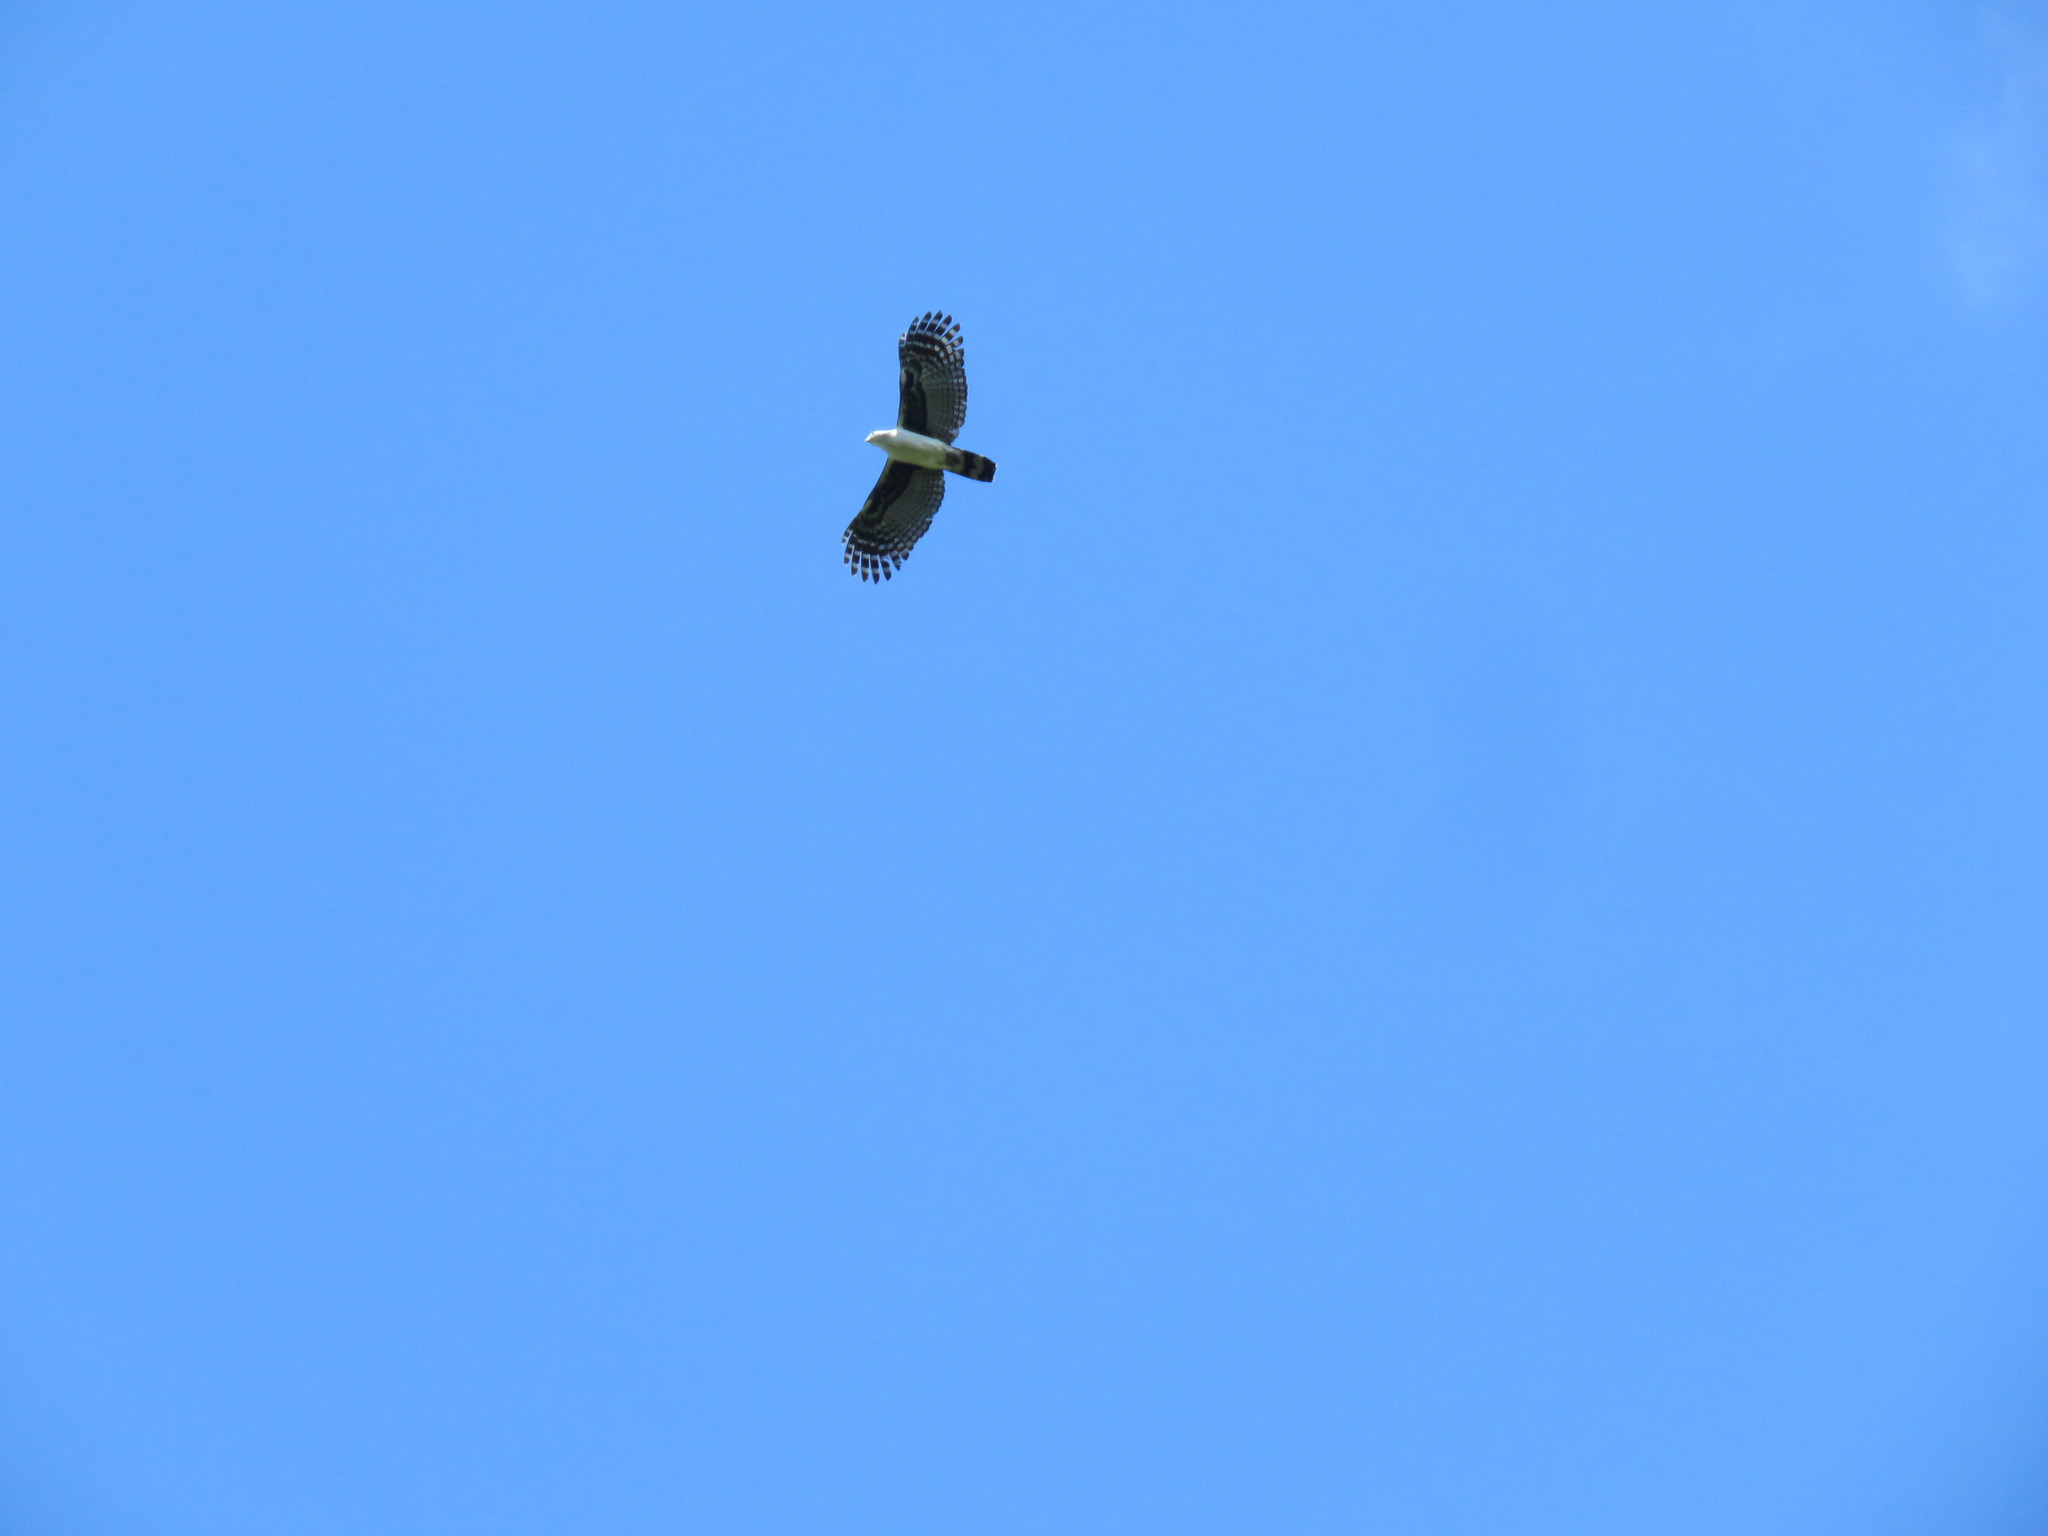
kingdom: Animalia
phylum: Chordata
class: Aves
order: Accipitriformes
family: Accipitridae
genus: Leptodon
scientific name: Leptodon cayanensis
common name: Gray-headed kite
